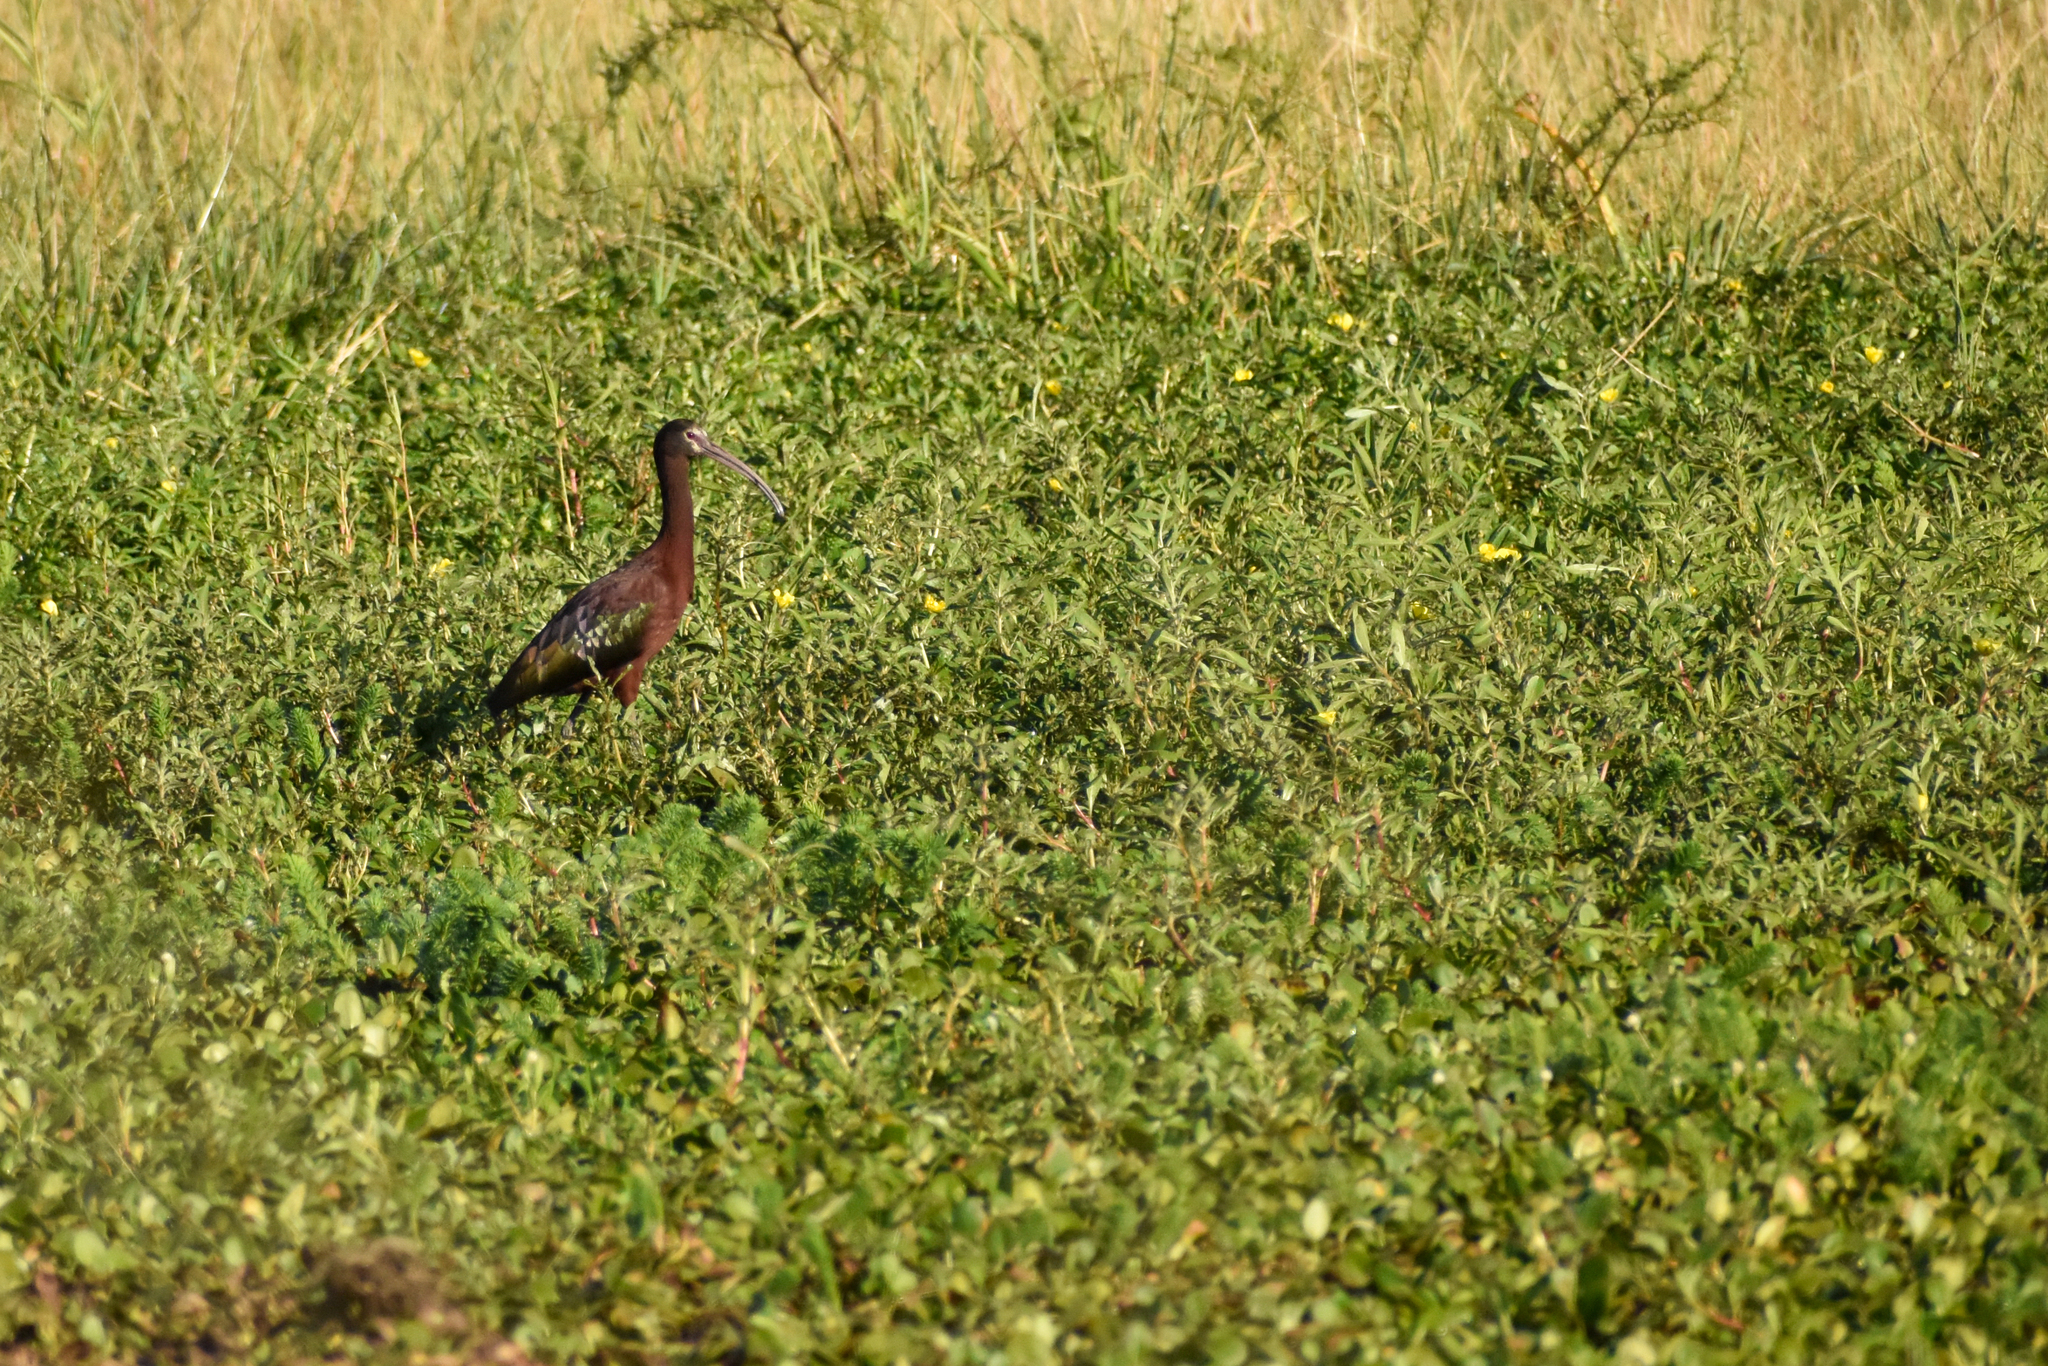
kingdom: Animalia
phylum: Chordata
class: Aves
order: Pelecaniformes
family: Threskiornithidae
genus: Plegadis
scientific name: Plegadis chihi
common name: White-faced ibis
